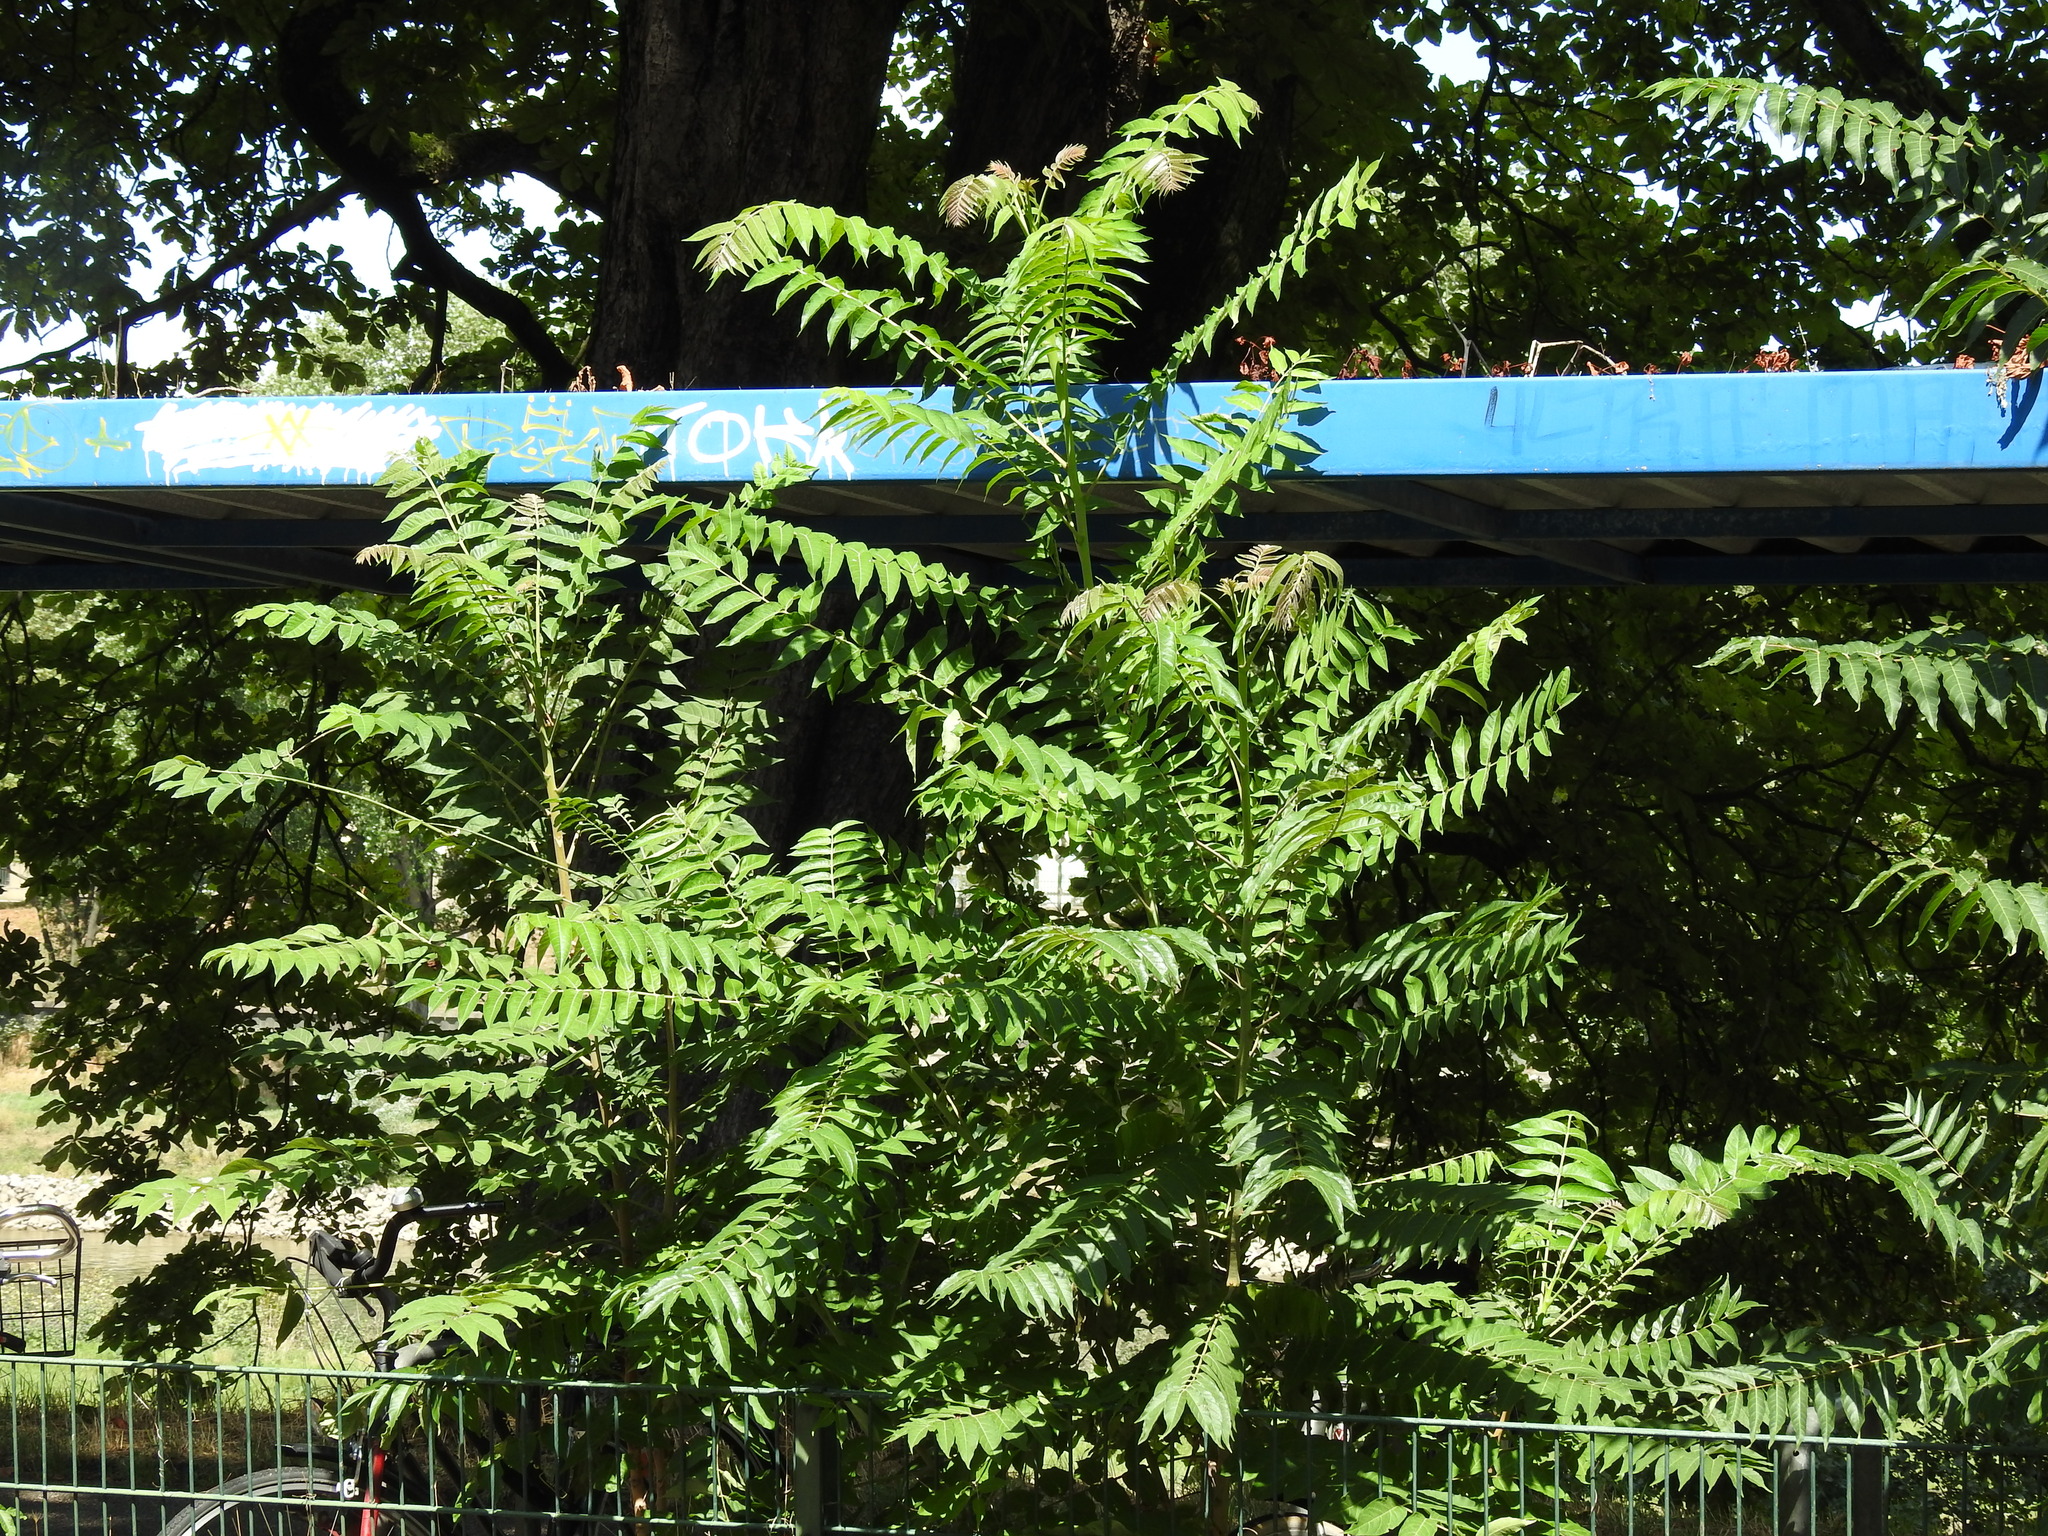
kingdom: Plantae
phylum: Tracheophyta
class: Magnoliopsida
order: Sapindales
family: Simaroubaceae
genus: Ailanthus
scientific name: Ailanthus altissima
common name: Tree-of-heaven
